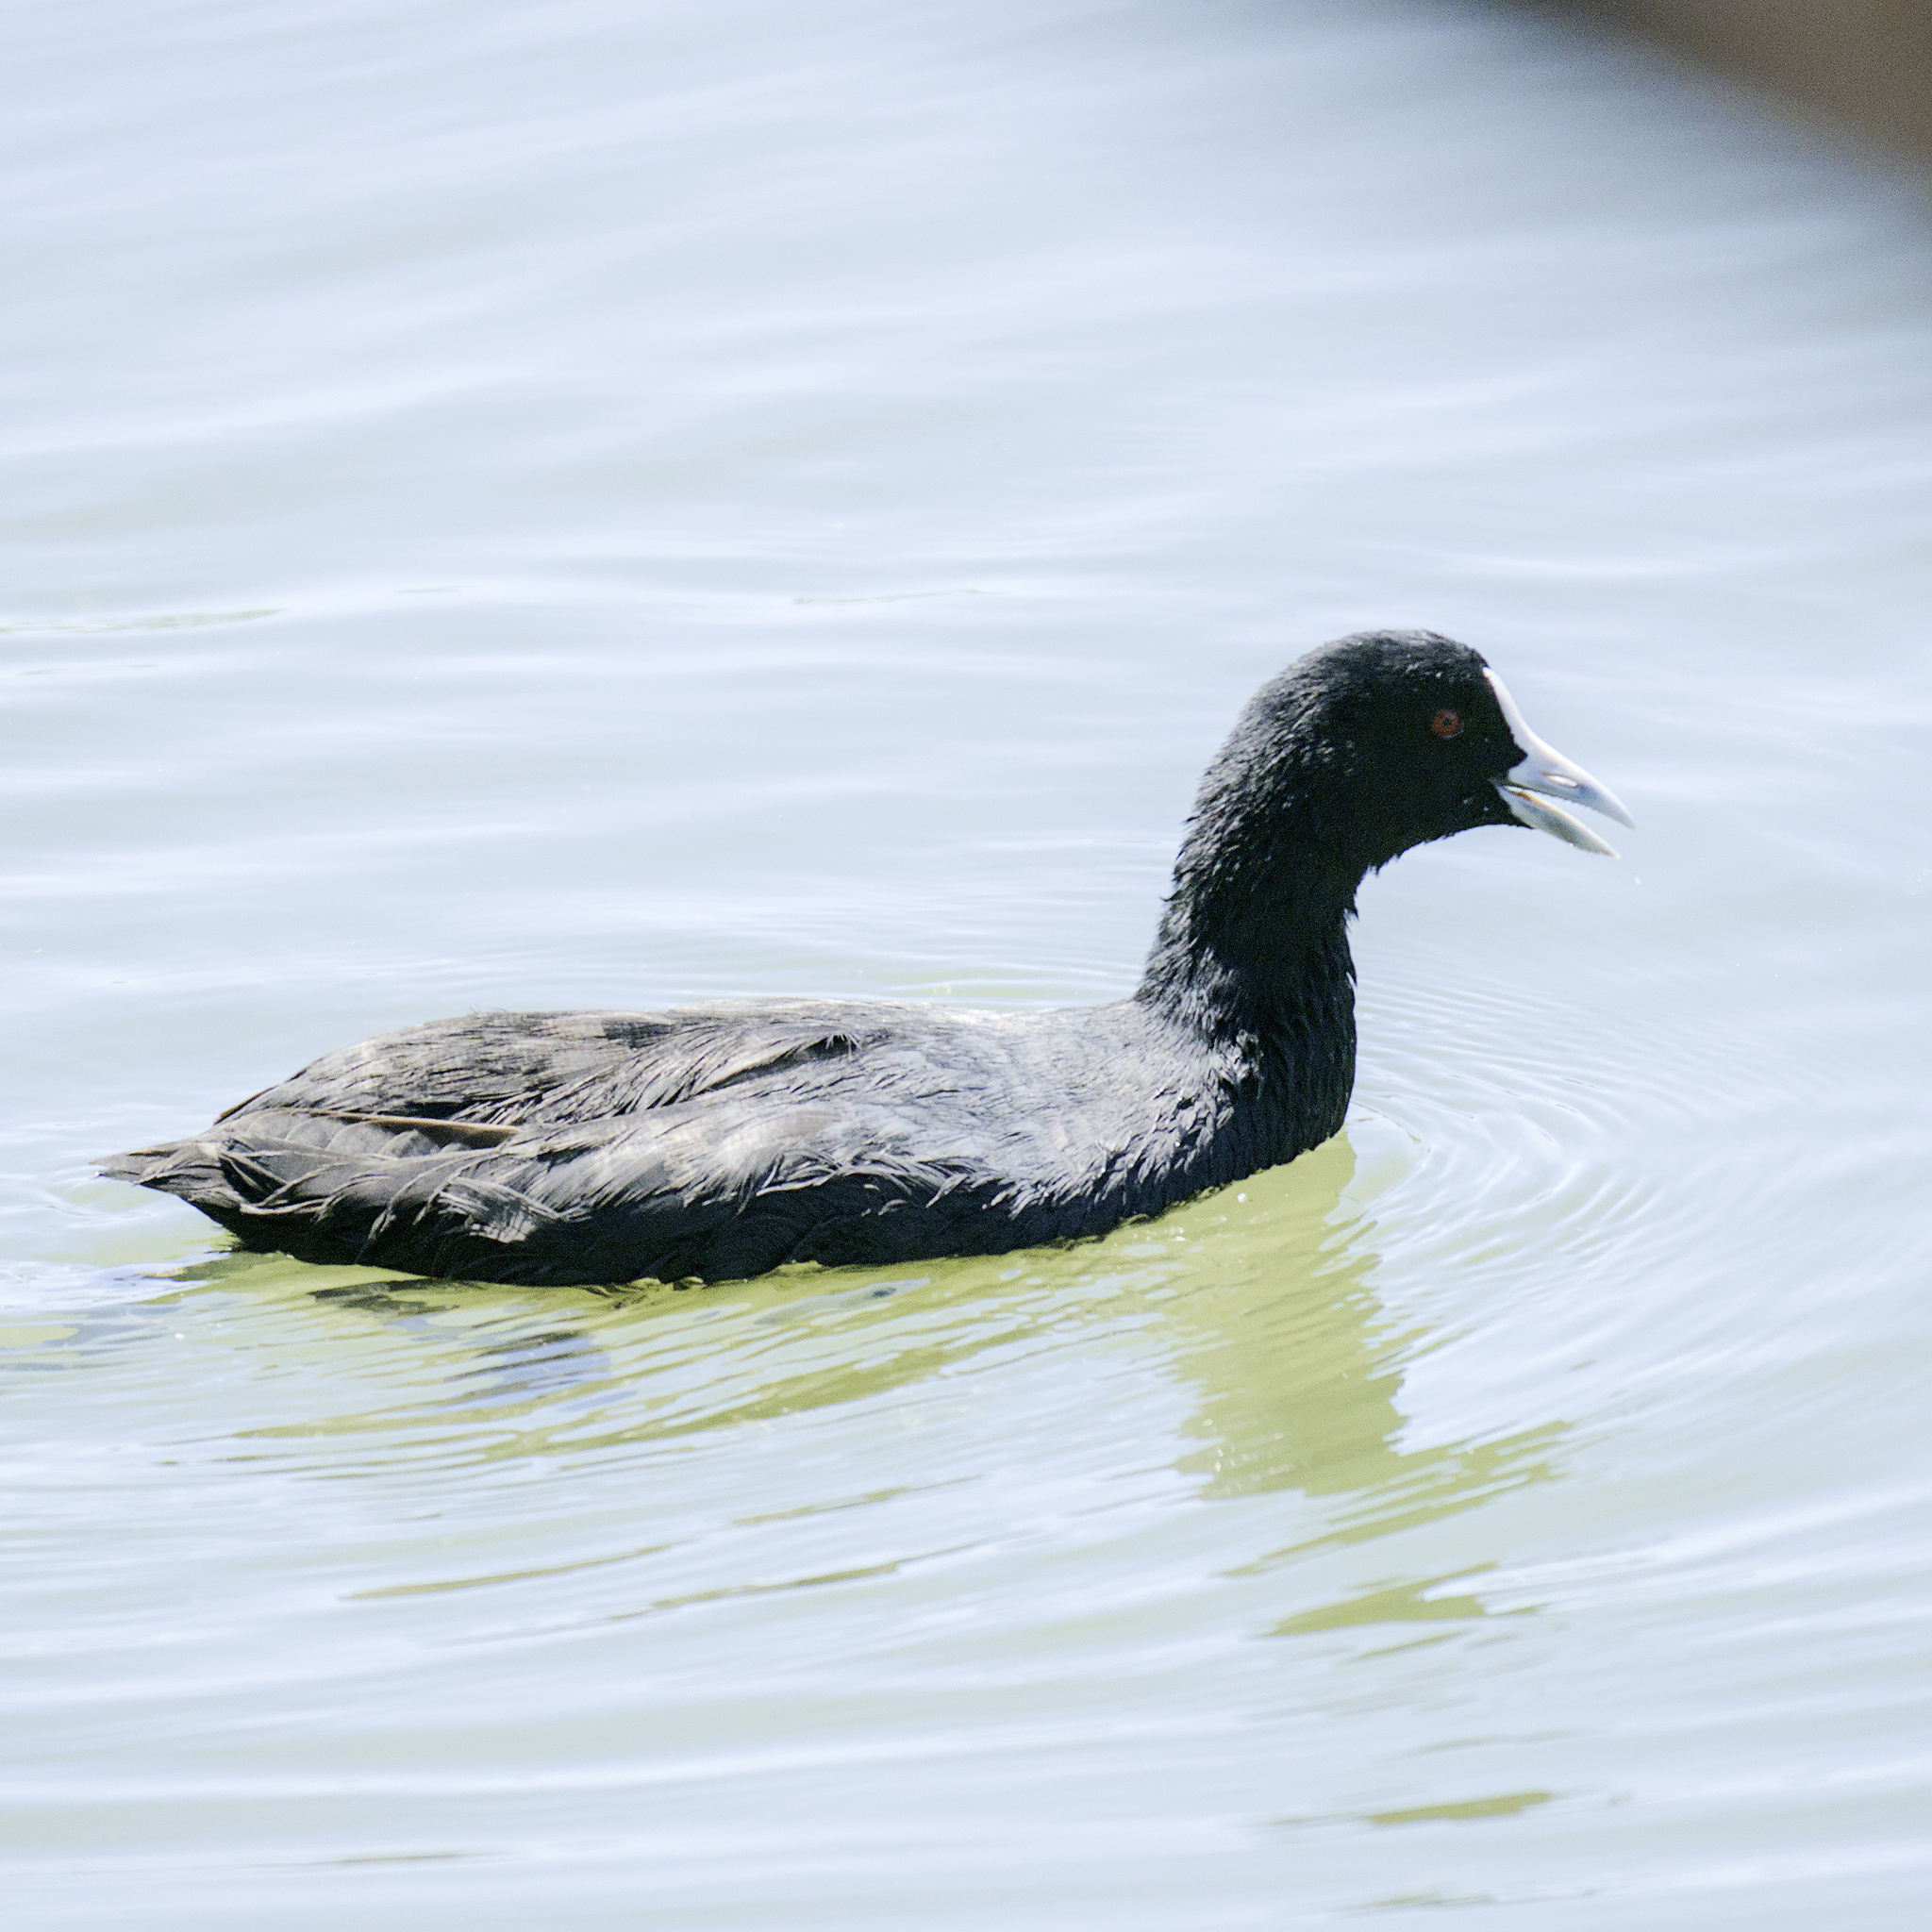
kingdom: Animalia
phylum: Chordata
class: Aves
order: Gruiformes
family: Rallidae
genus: Fulica
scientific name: Fulica atra
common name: Eurasian coot
